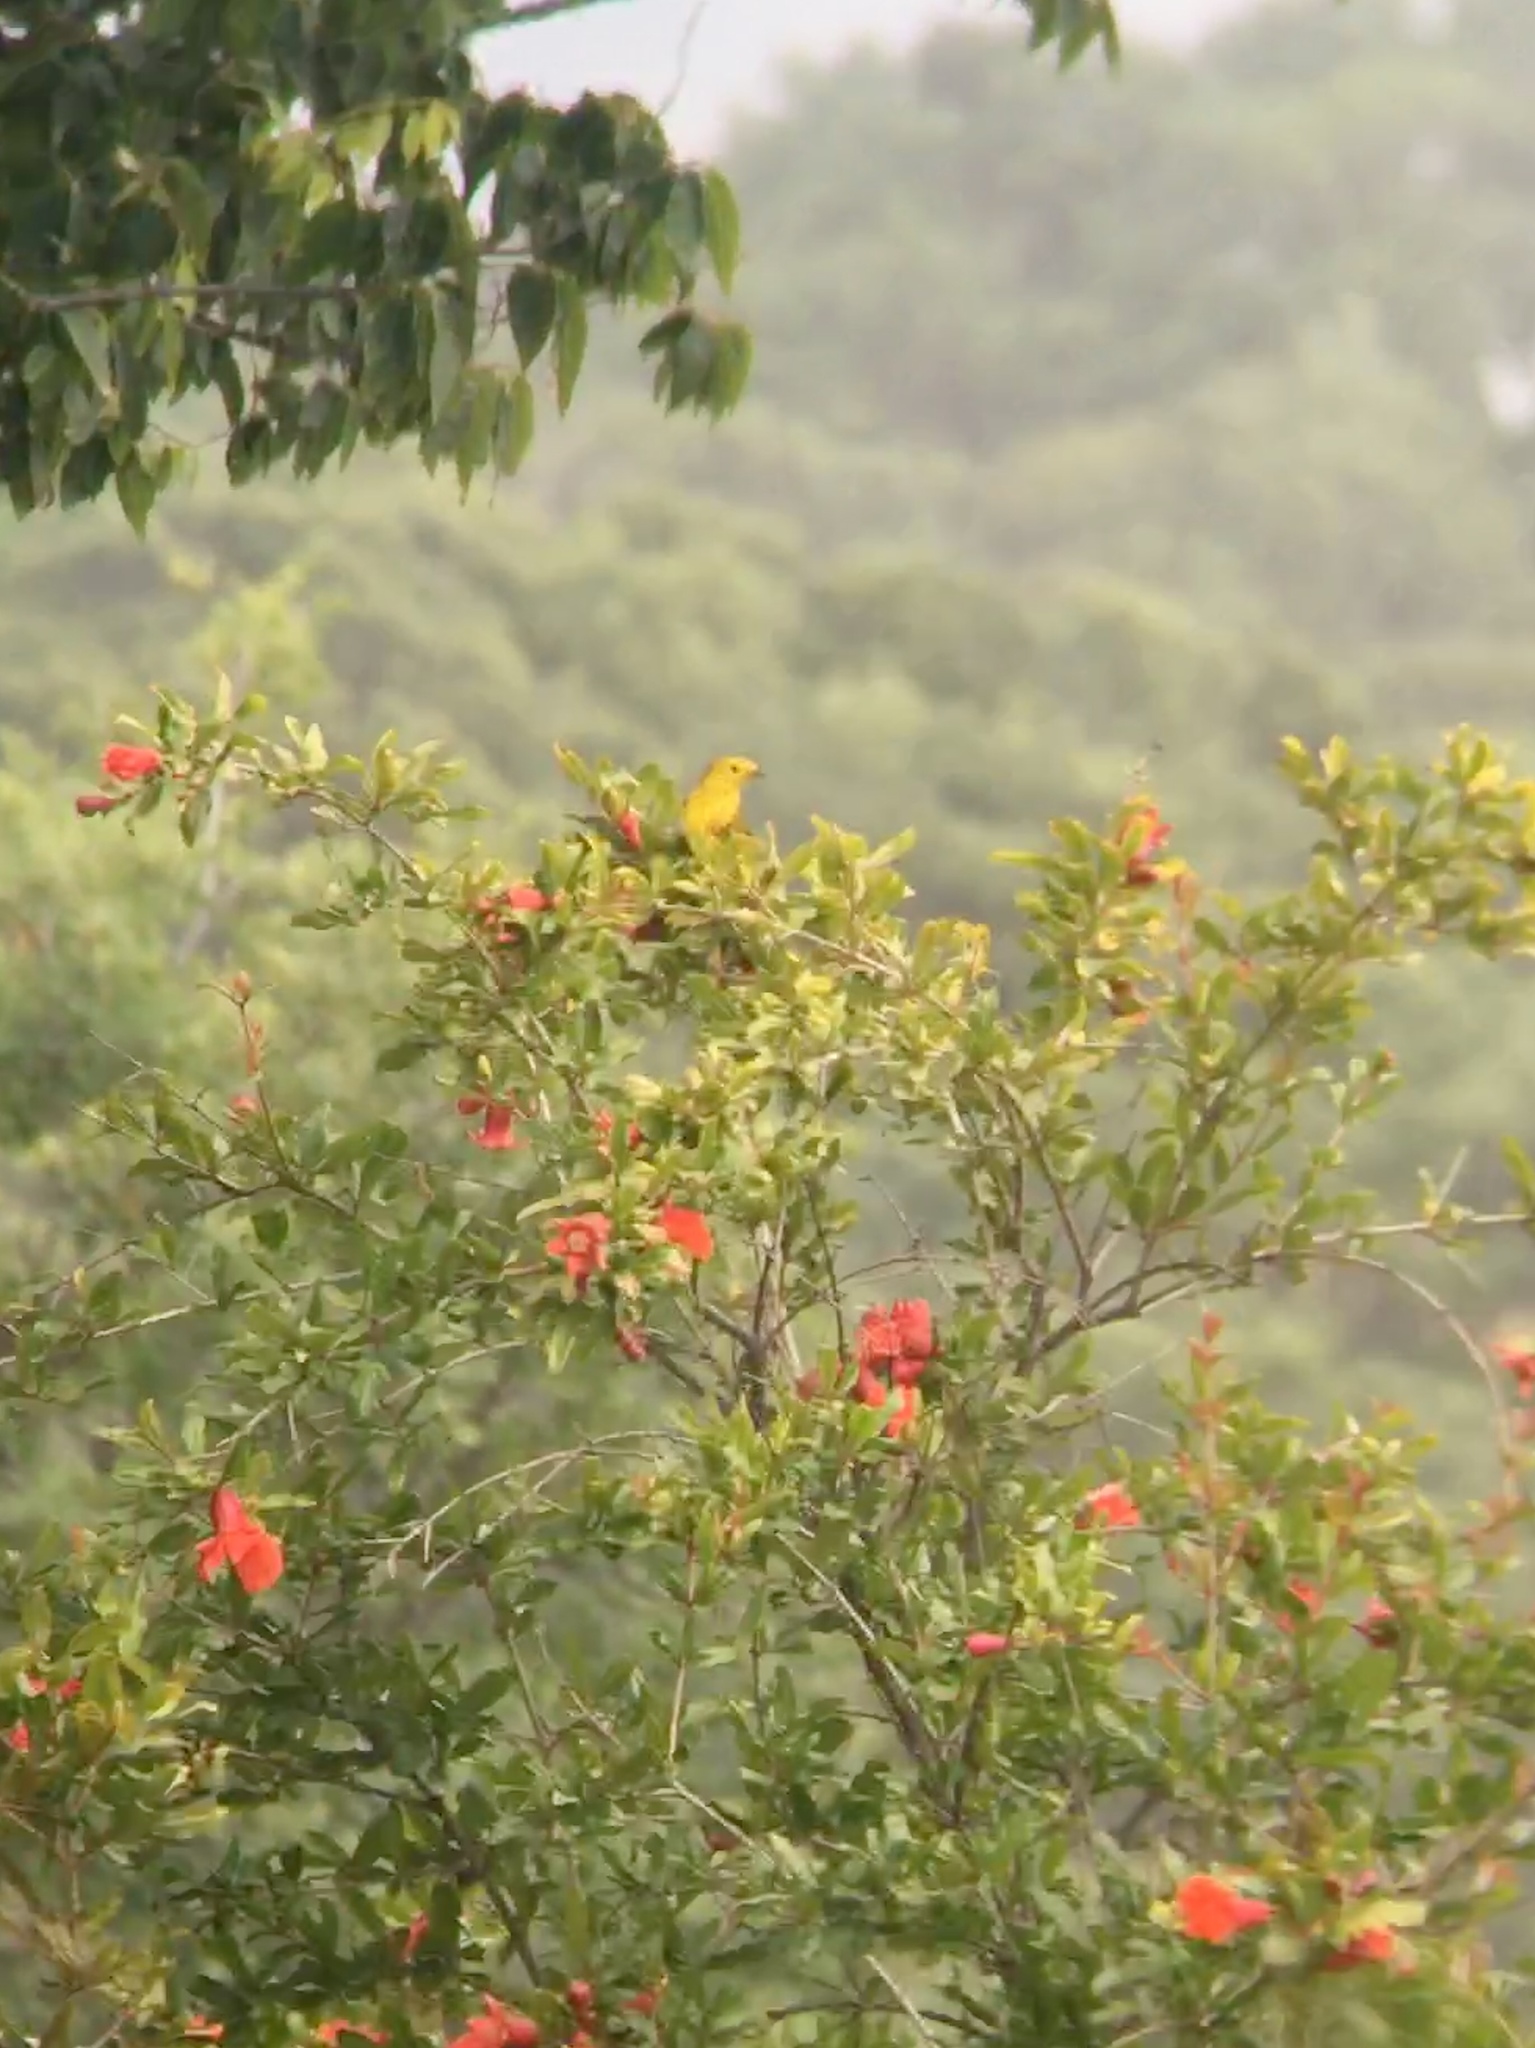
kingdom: Animalia
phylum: Chordata
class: Aves
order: Passeriformes
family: Parulidae
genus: Setophaga
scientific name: Setophaga petechia
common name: Yellow warbler
